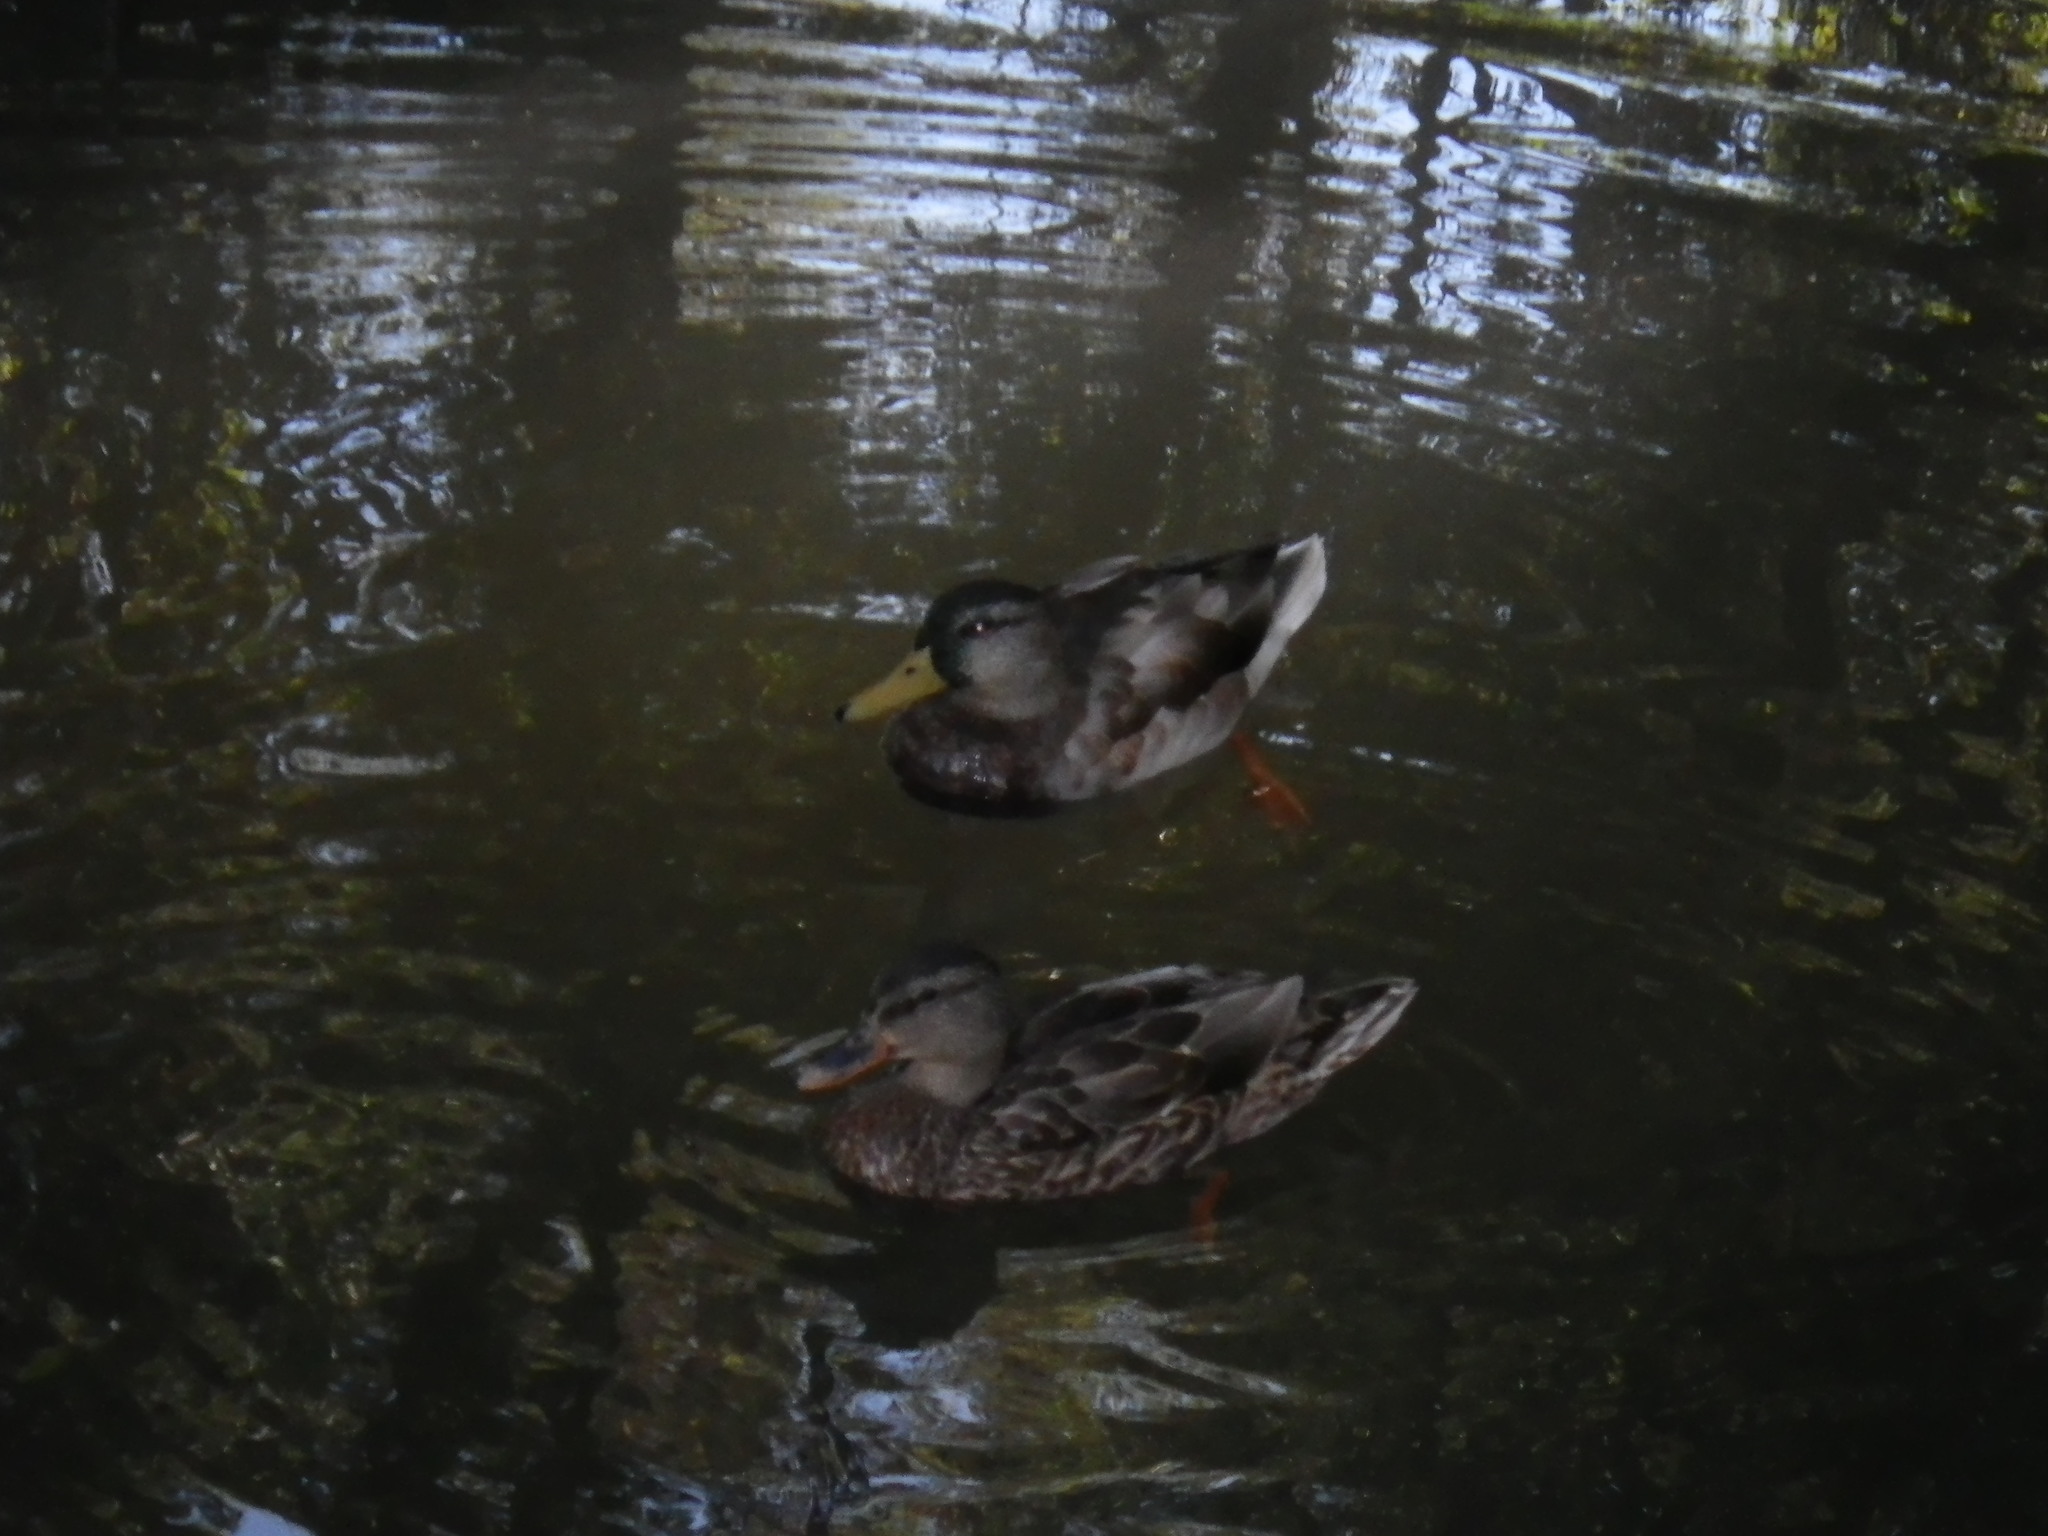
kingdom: Animalia
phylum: Chordata
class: Aves
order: Anseriformes
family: Anatidae
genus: Anas
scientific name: Anas platyrhynchos
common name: Mallard
